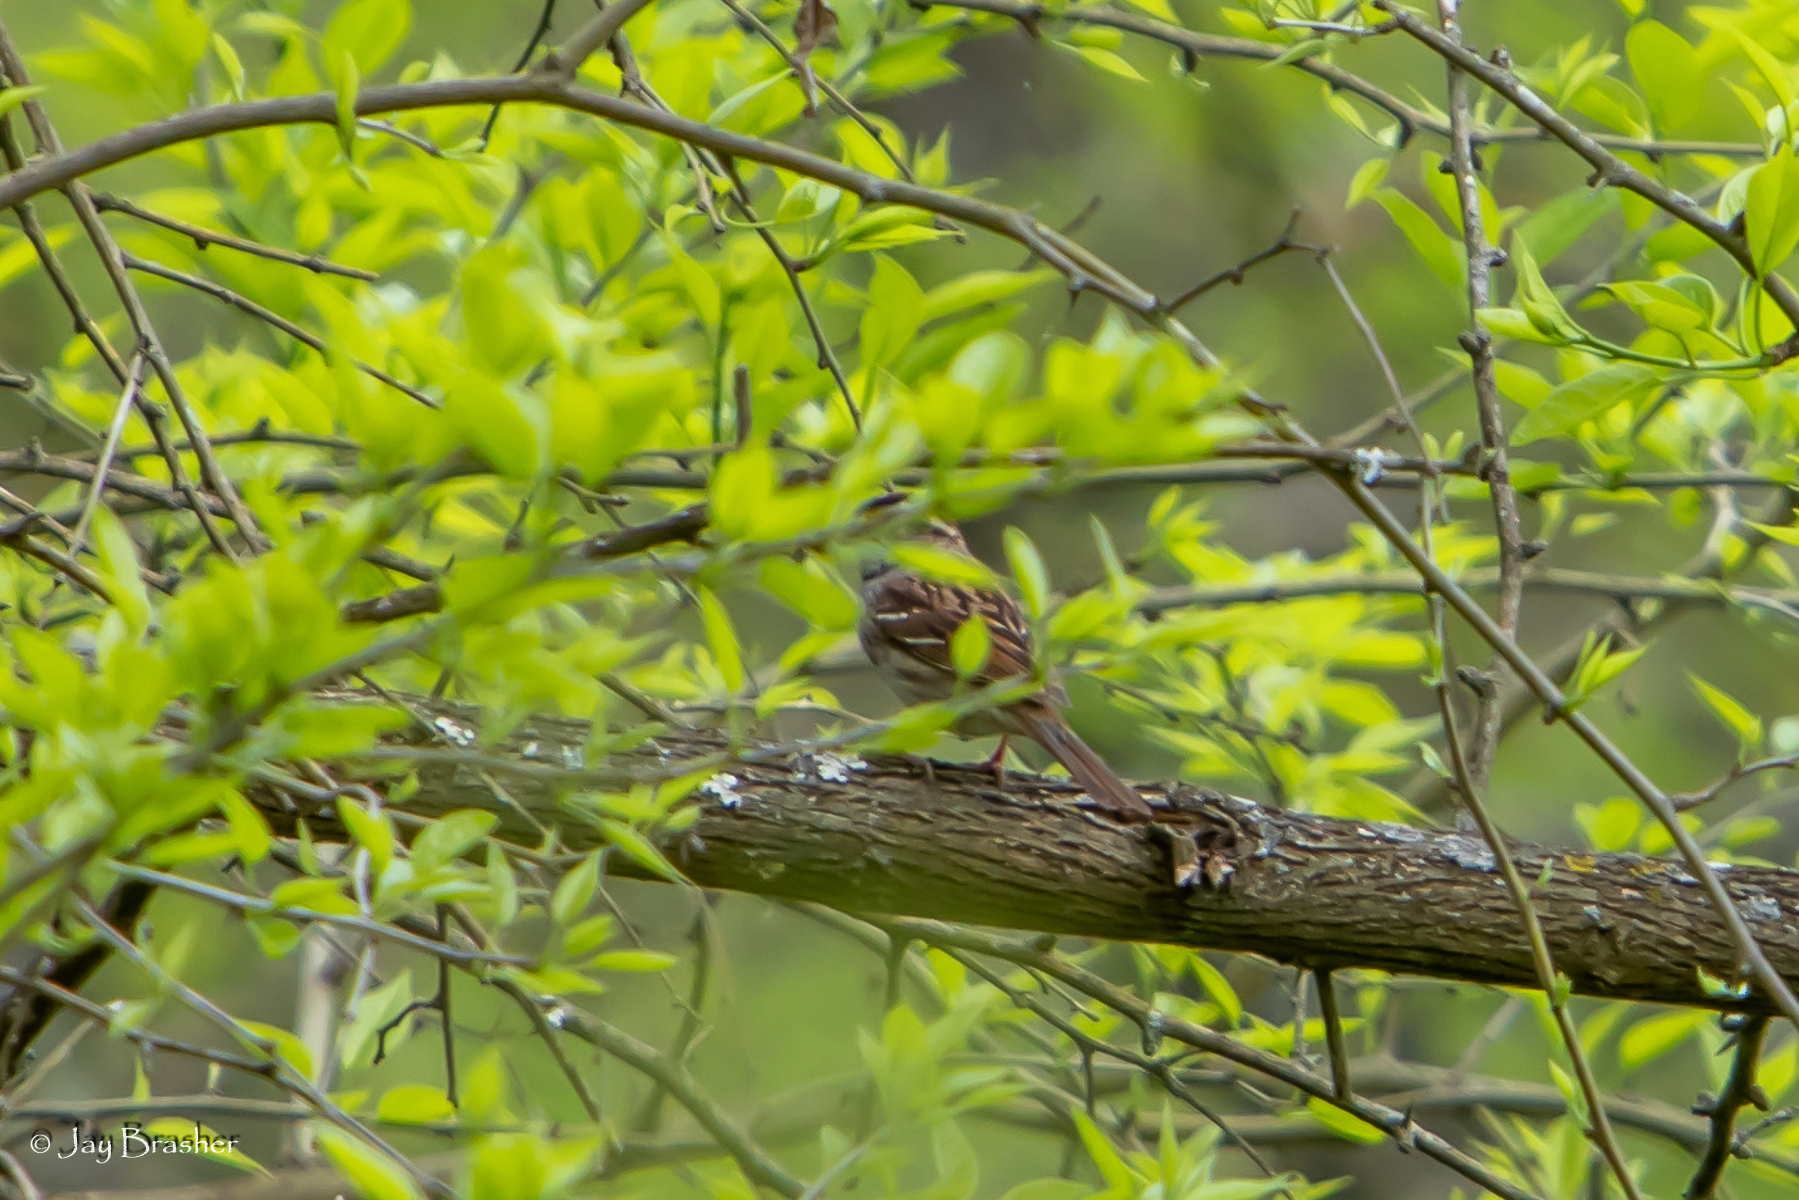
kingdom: Animalia
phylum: Chordata
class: Aves
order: Passeriformes
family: Passerellidae
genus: Zonotrichia
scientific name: Zonotrichia albicollis
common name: White-throated sparrow
